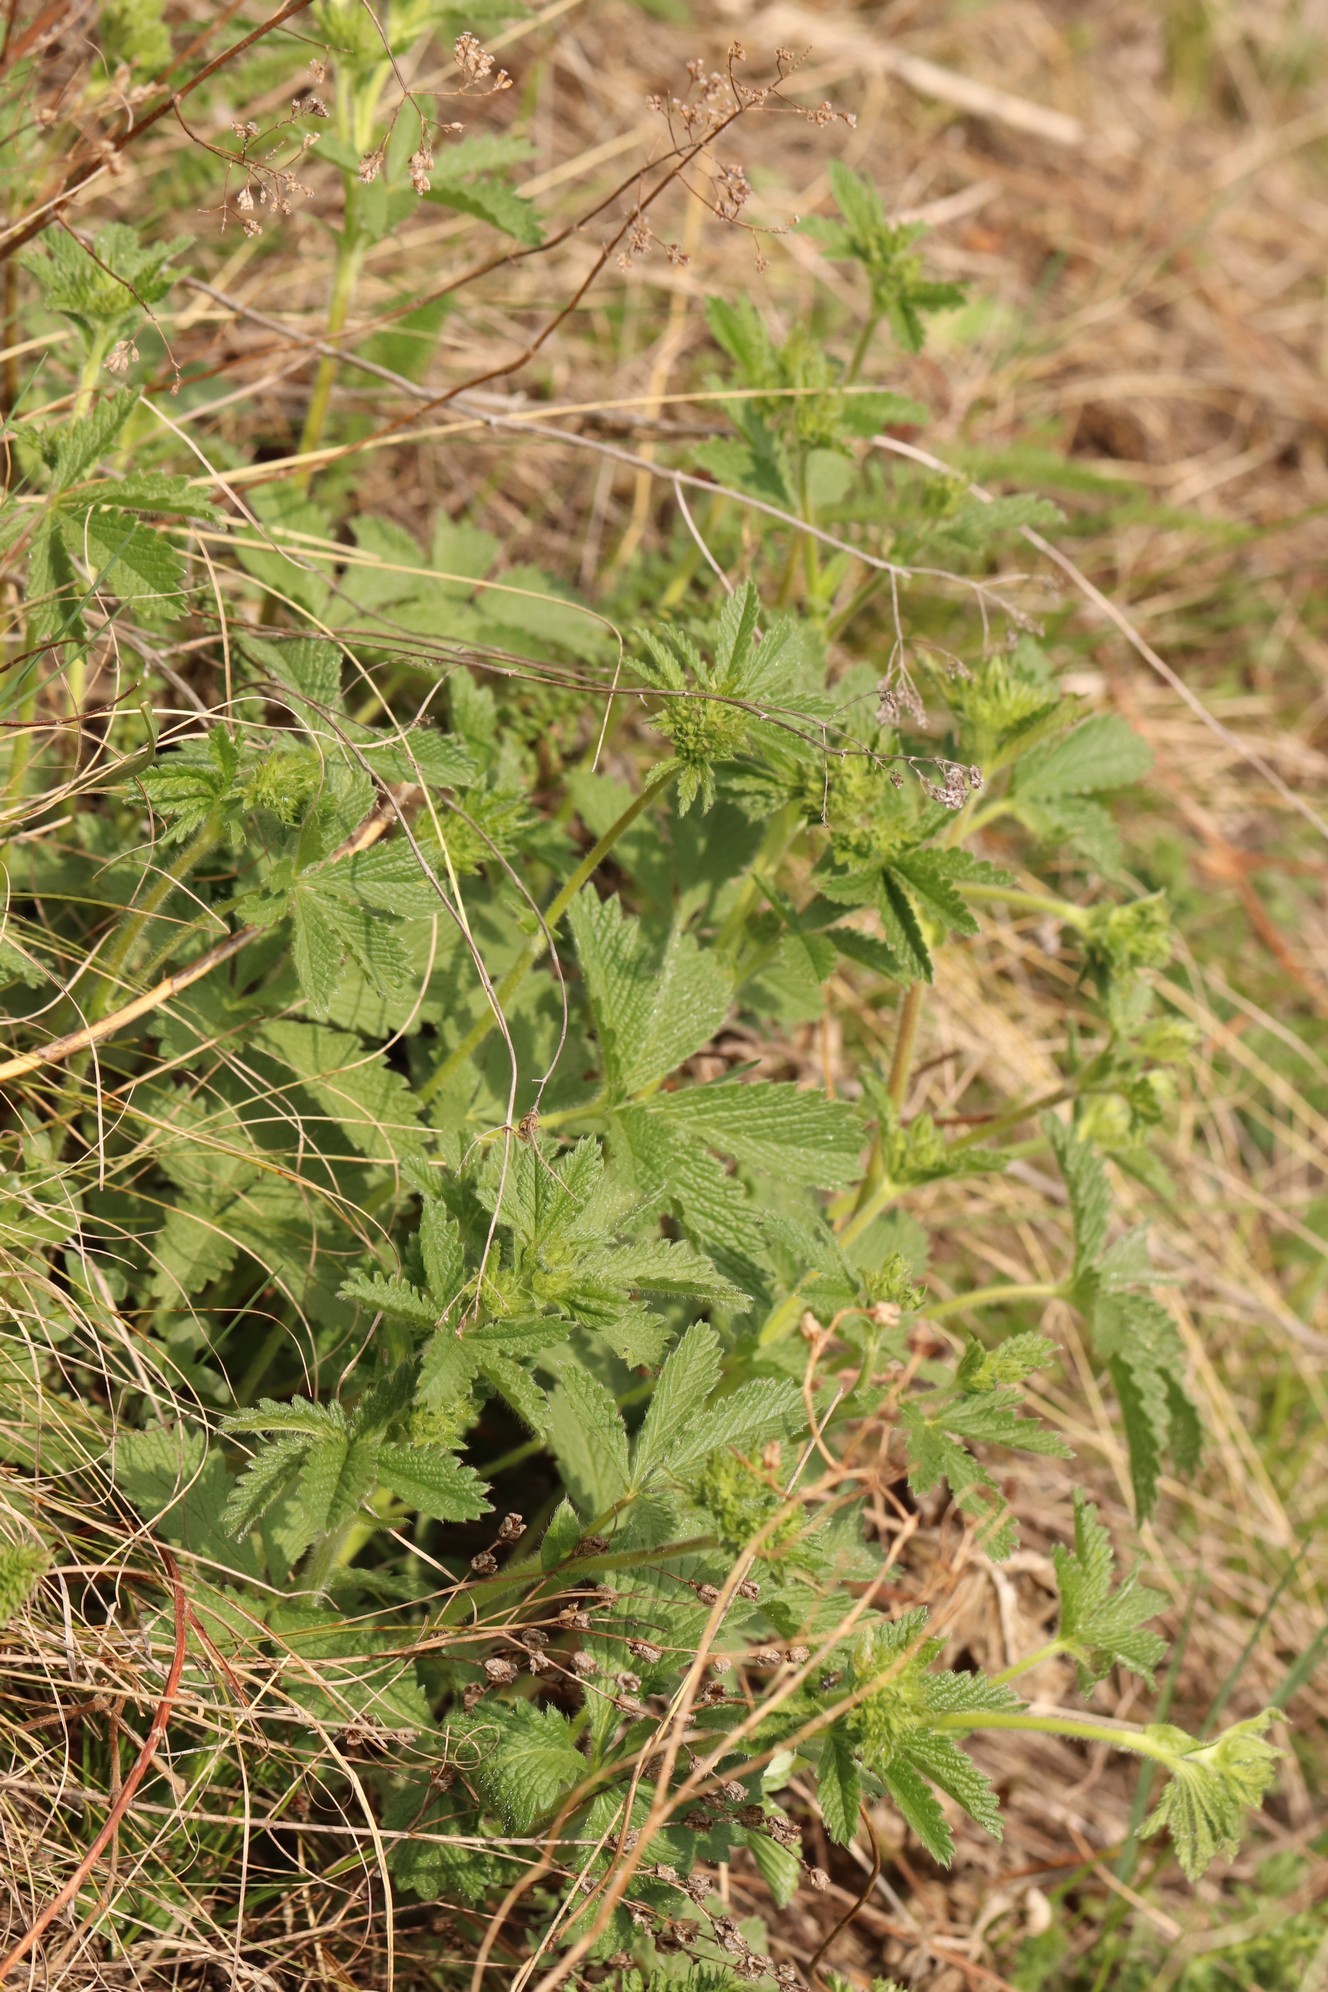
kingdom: Plantae
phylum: Tracheophyta
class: Magnoliopsida
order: Rosales
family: Rosaceae
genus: Potentilla
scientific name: Potentilla chrysantha
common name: Thuringian cinquefoil
